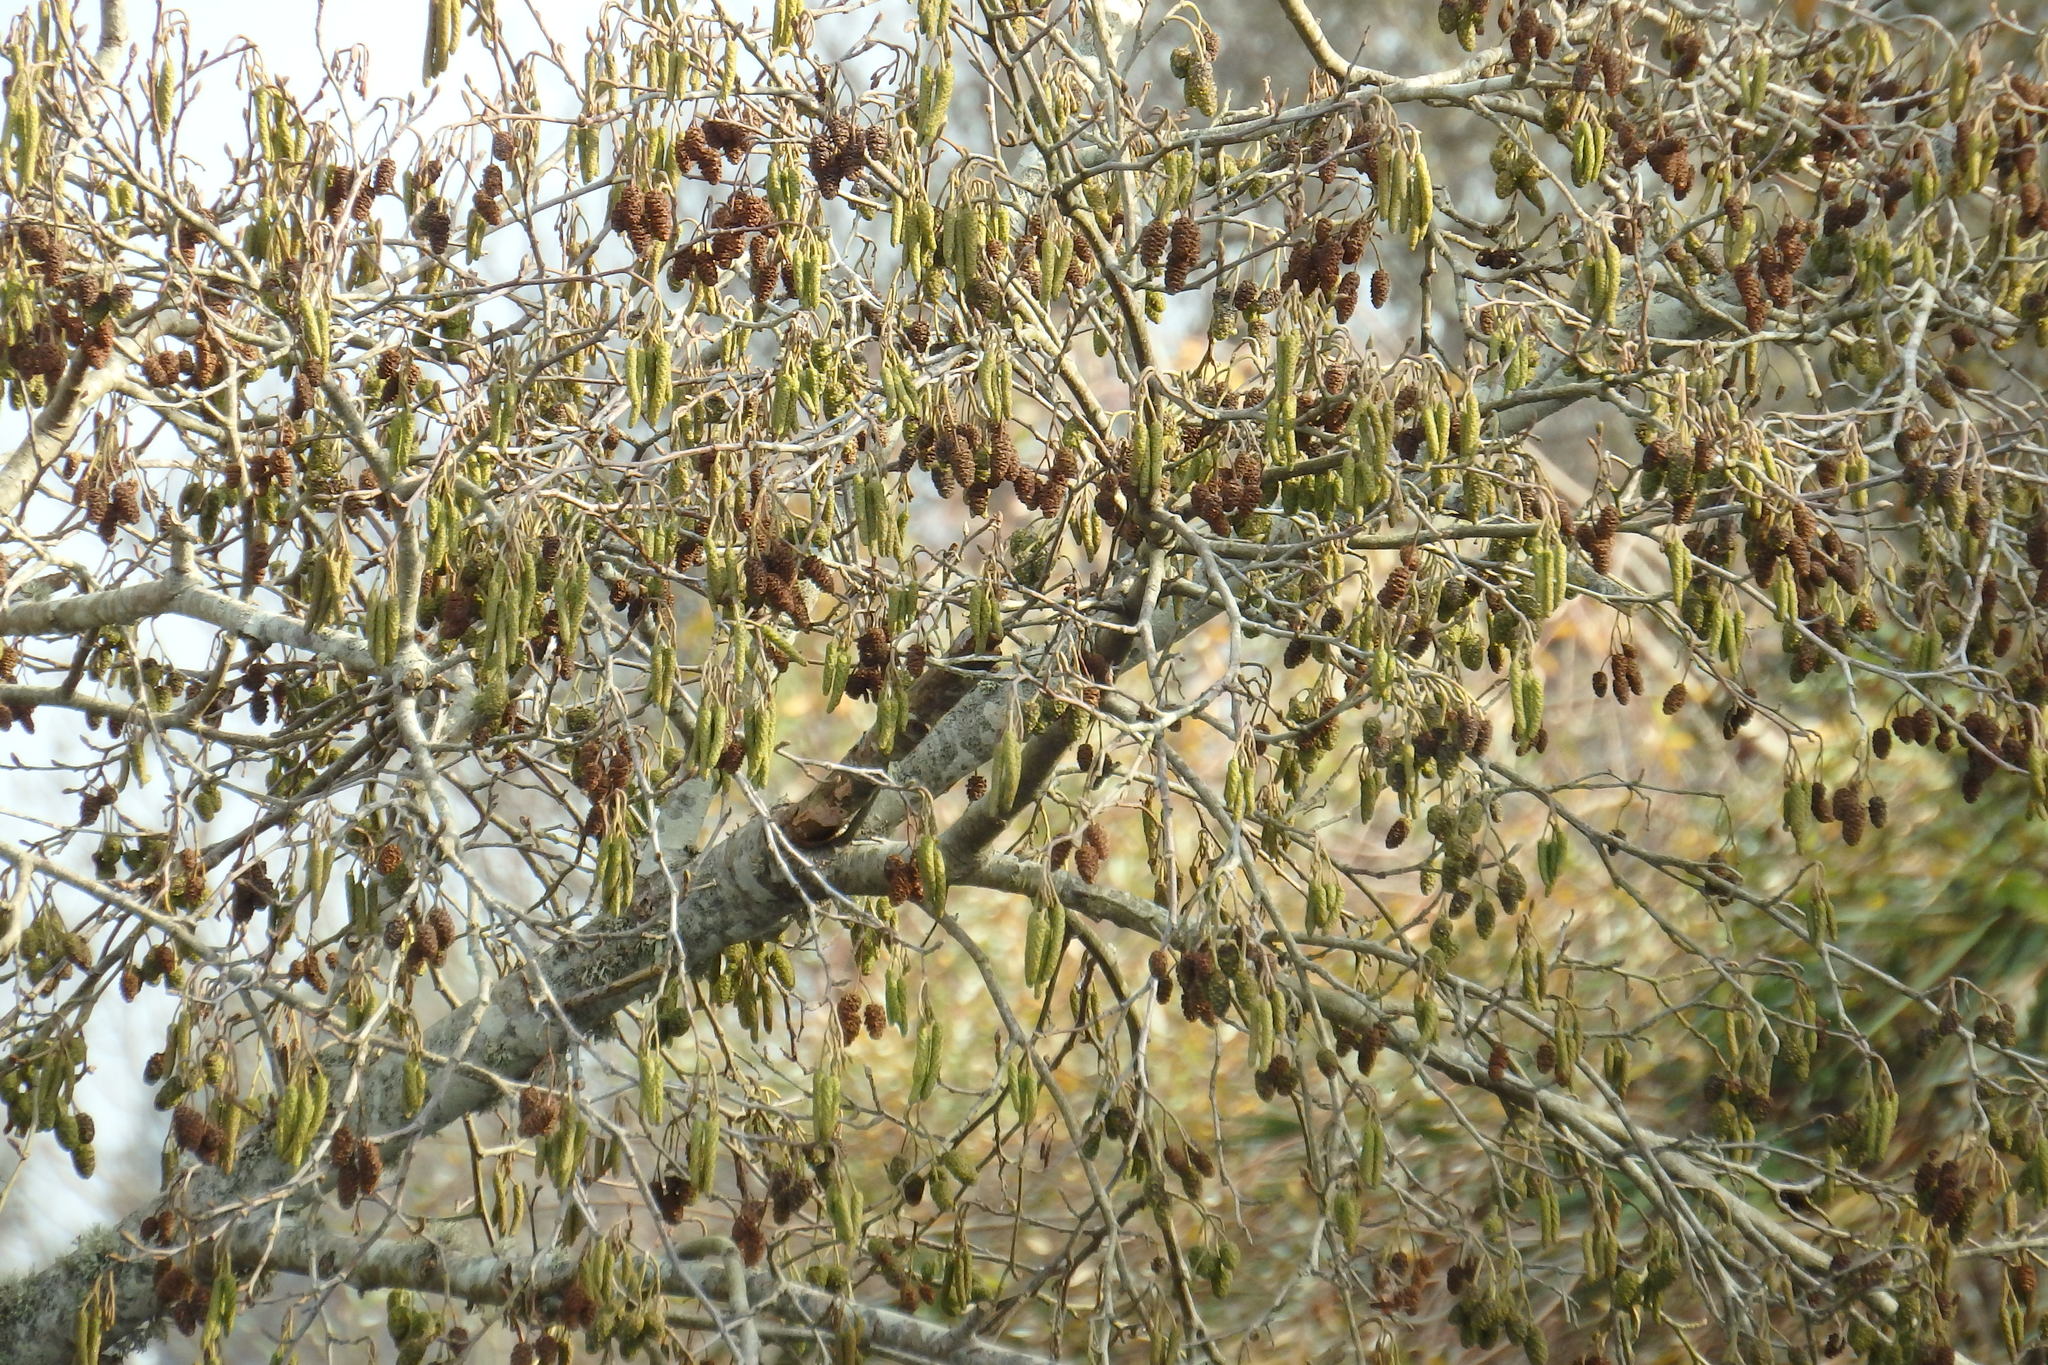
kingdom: Plantae
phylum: Tracheophyta
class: Magnoliopsida
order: Fagales
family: Betulaceae
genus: Alnus
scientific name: Alnus lusitanica
